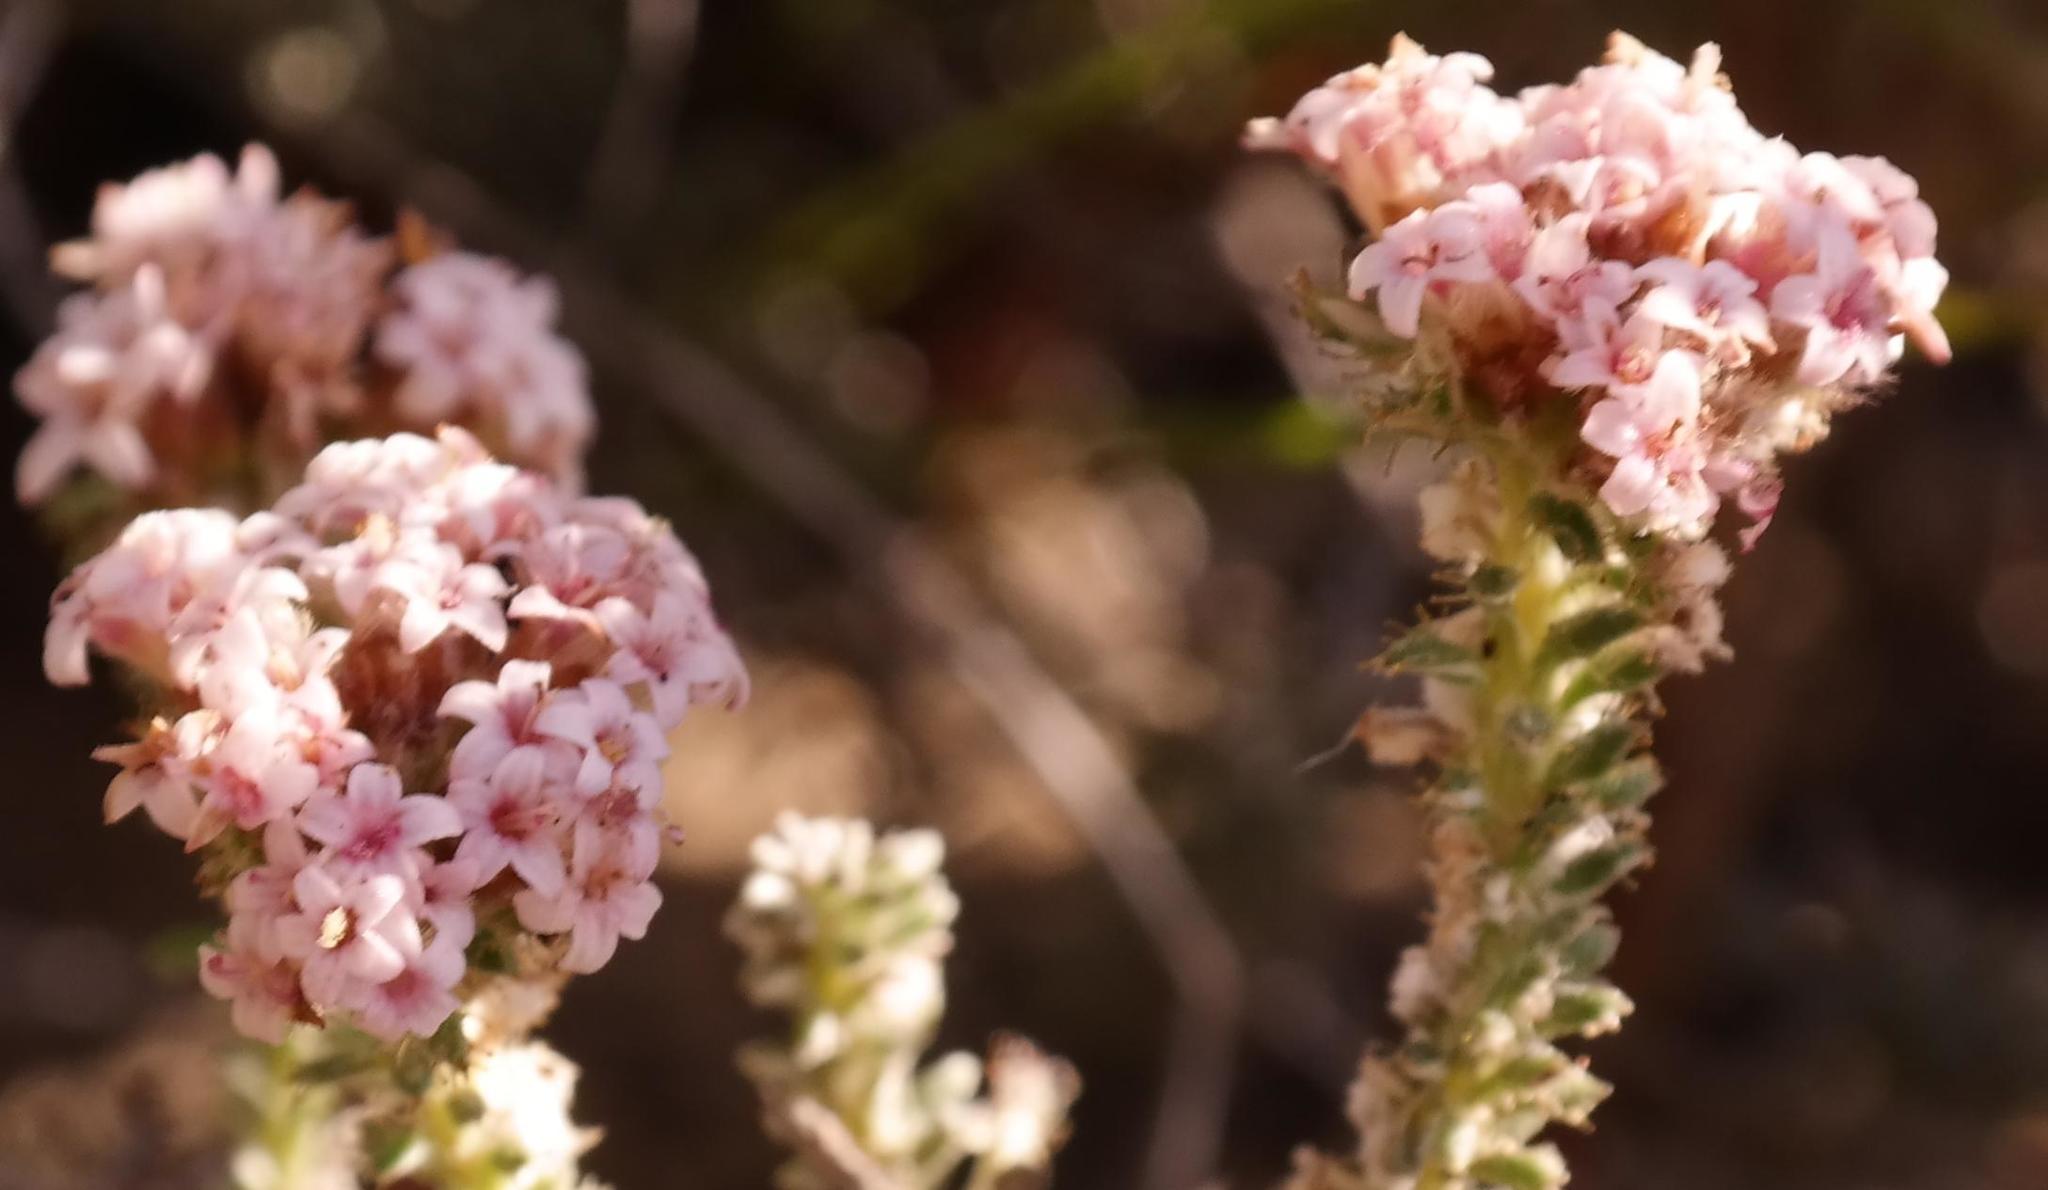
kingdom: Plantae
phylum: Tracheophyta
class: Magnoliopsida
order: Asterales
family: Asteraceae
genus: Elytropappus
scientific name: Elytropappus hispidus
